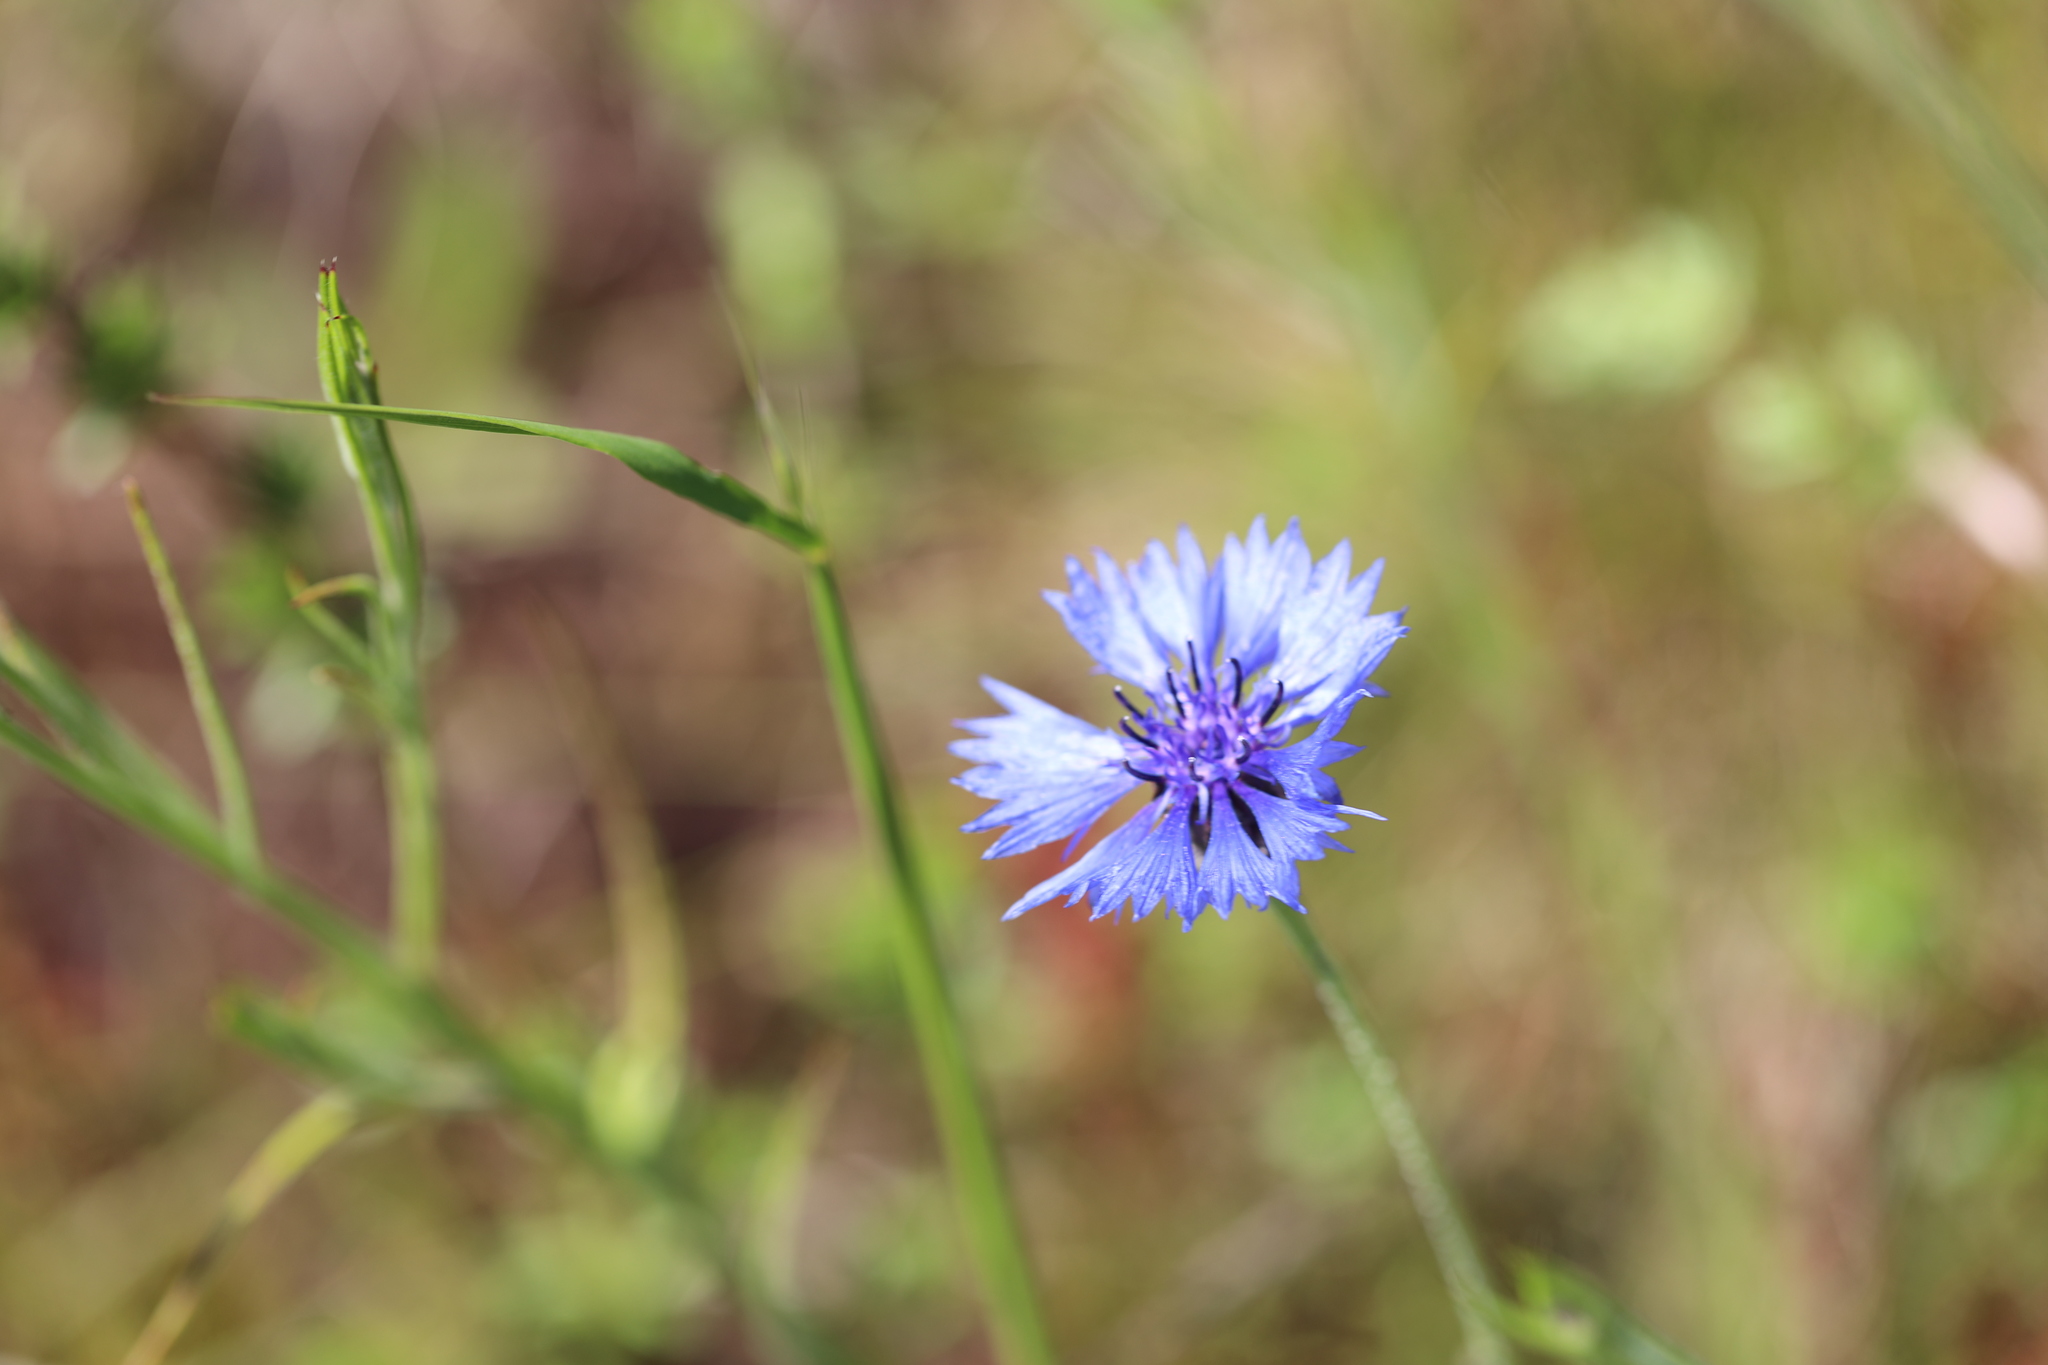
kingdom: Plantae
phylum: Tracheophyta
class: Magnoliopsida
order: Asterales
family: Asteraceae
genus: Centaurea
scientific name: Centaurea cyanus
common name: Cornflower
